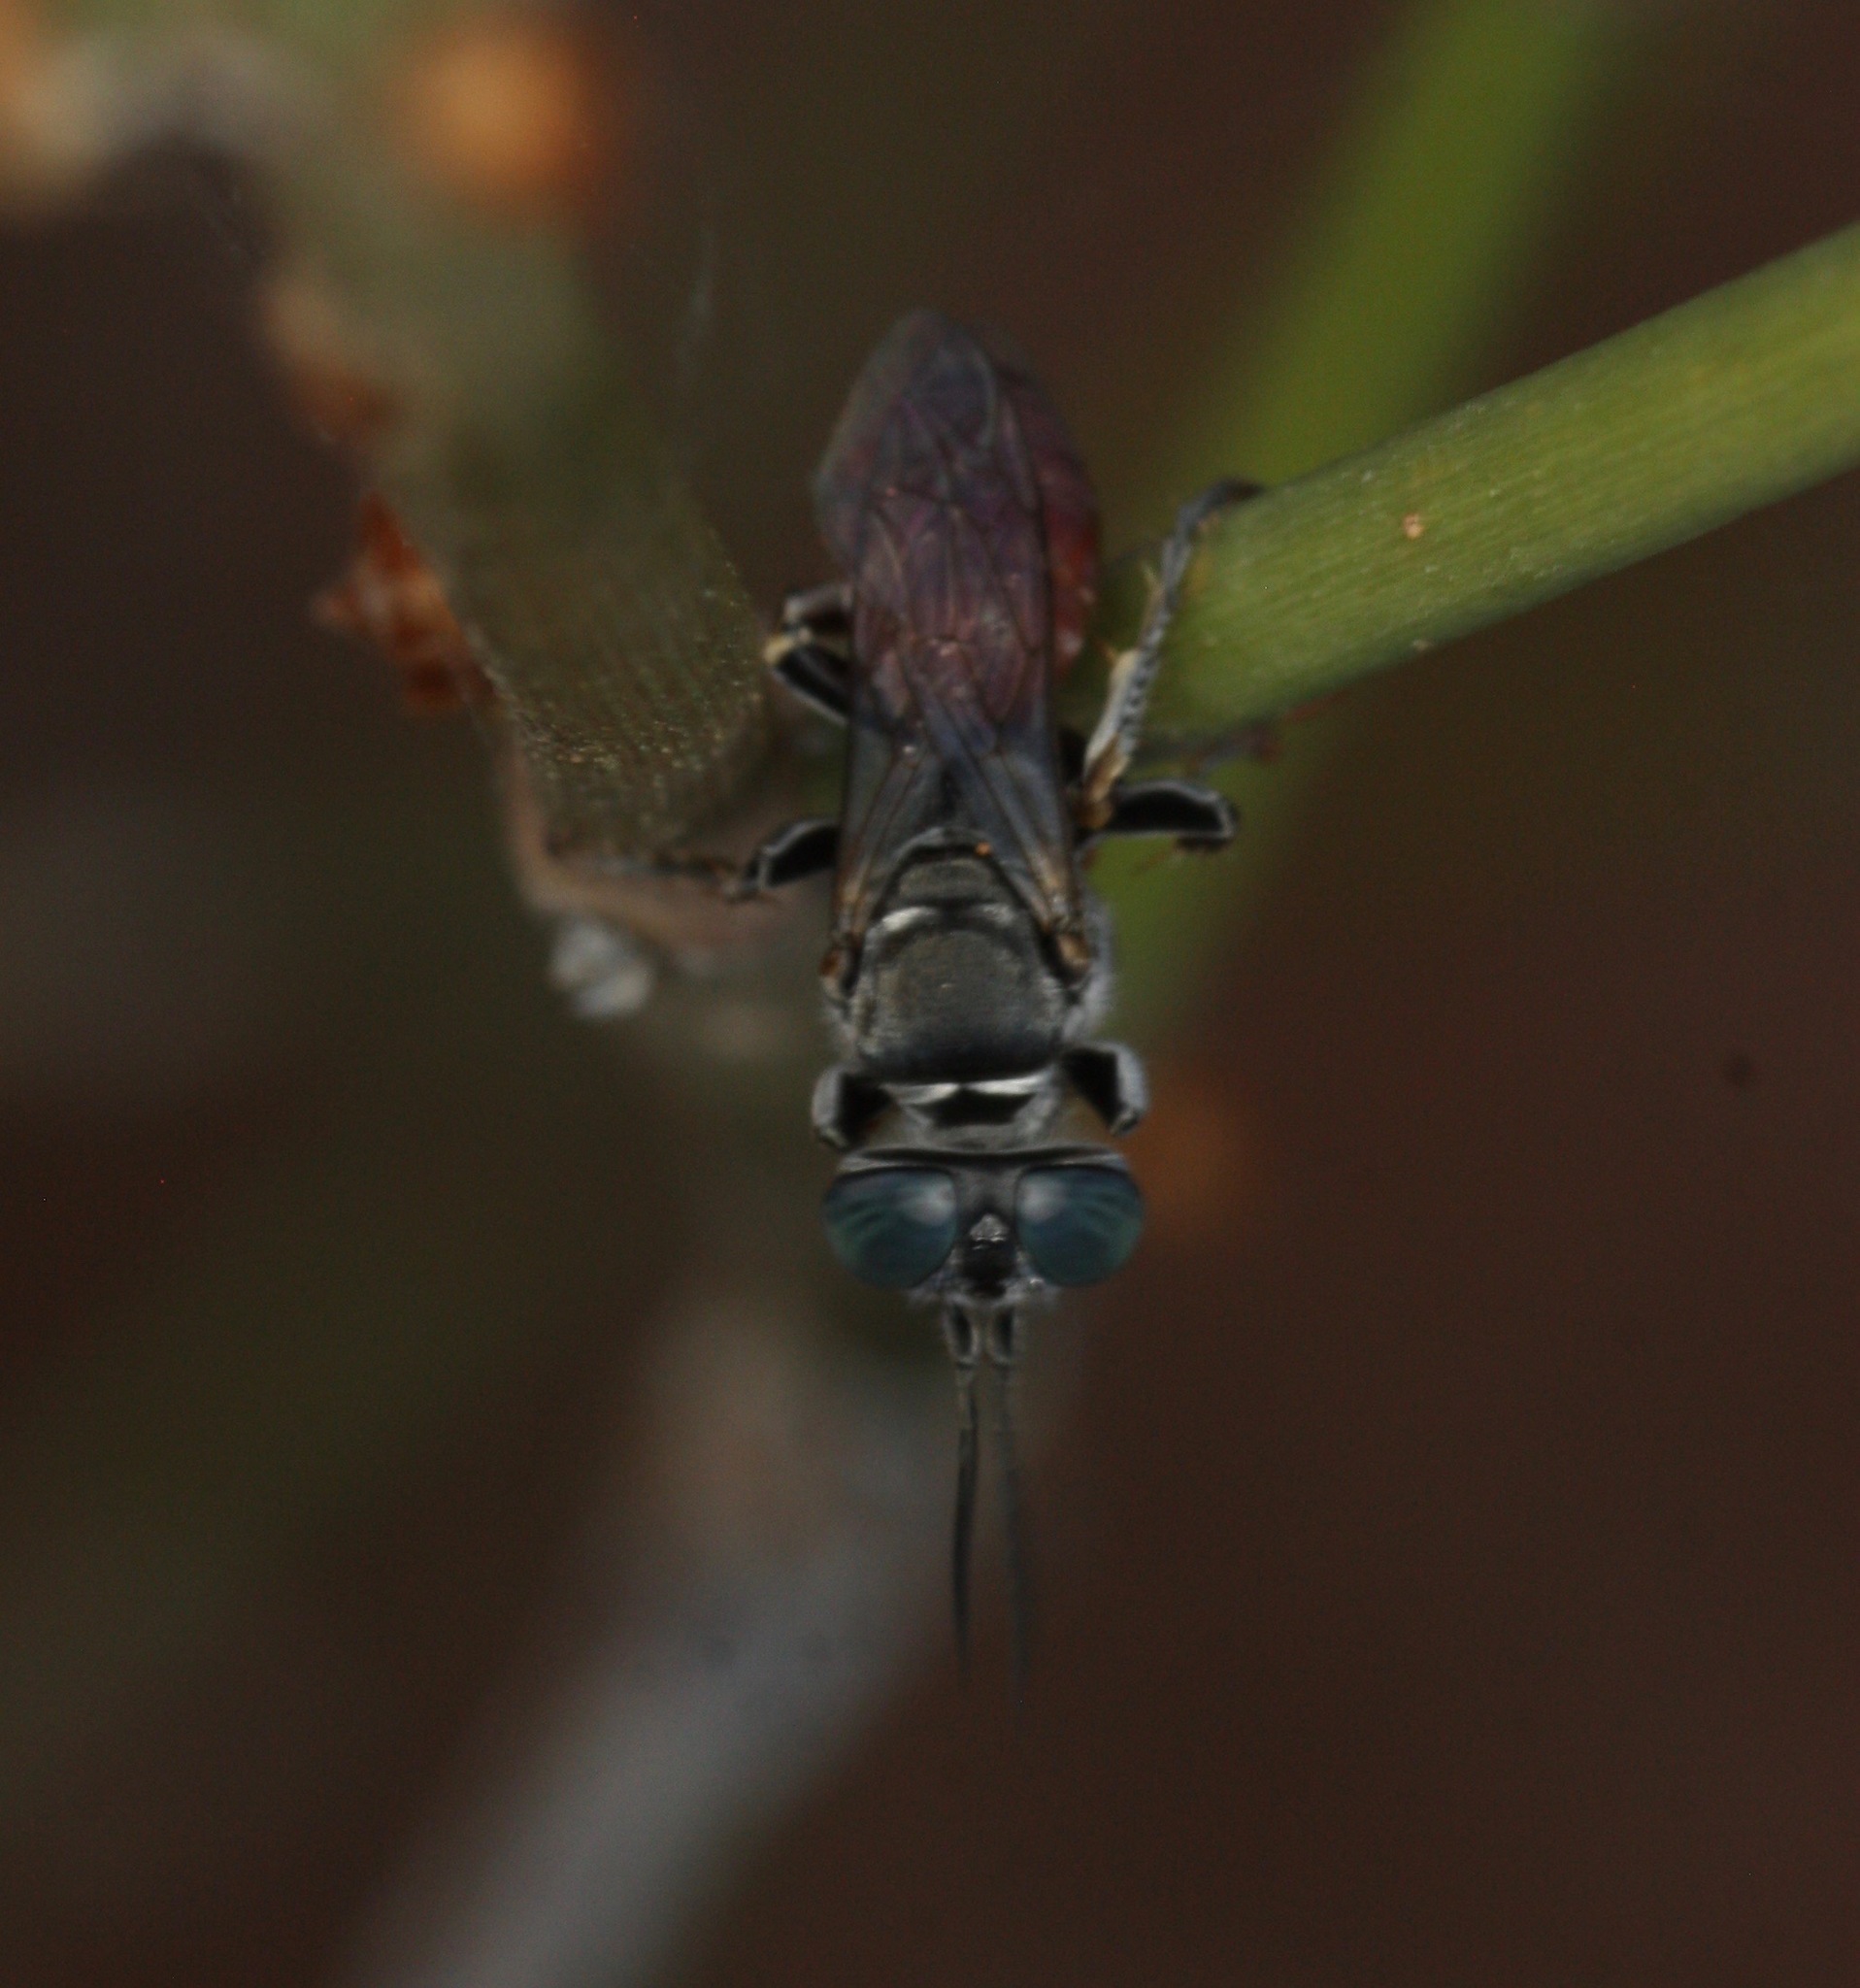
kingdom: Animalia
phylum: Arthropoda
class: Insecta
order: Hymenoptera
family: Crabronidae
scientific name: Crabronidae
